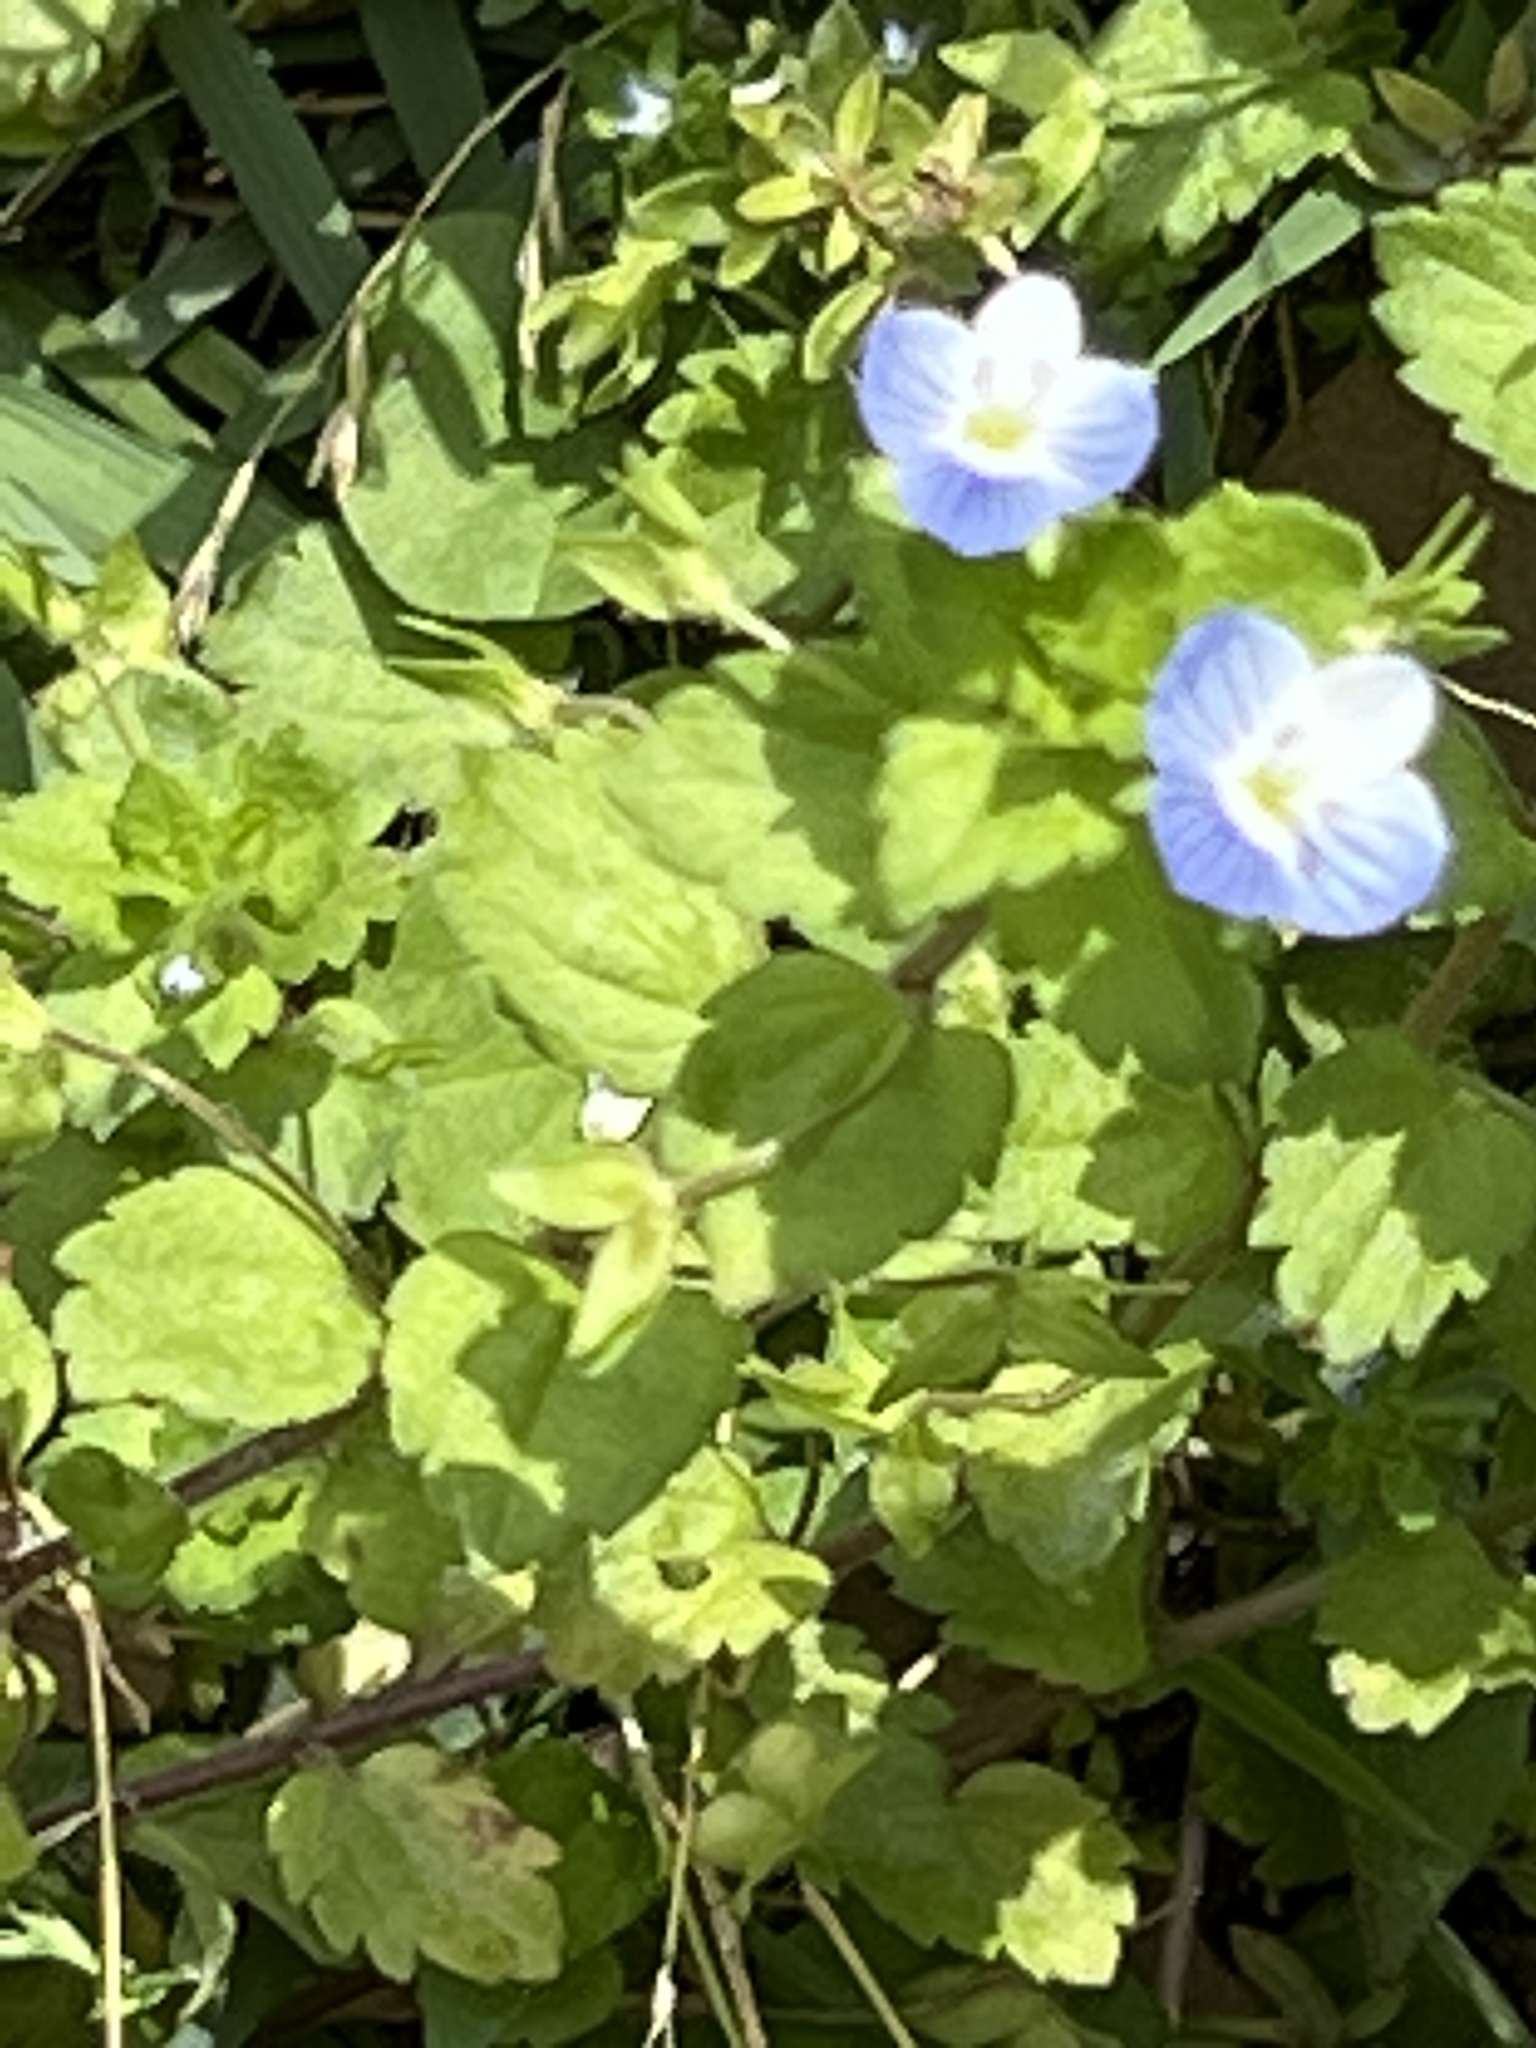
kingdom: Plantae
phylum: Tracheophyta
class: Magnoliopsida
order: Lamiales
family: Plantaginaceae
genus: Veronica
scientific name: Veronica persica
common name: Common field-speedwell
